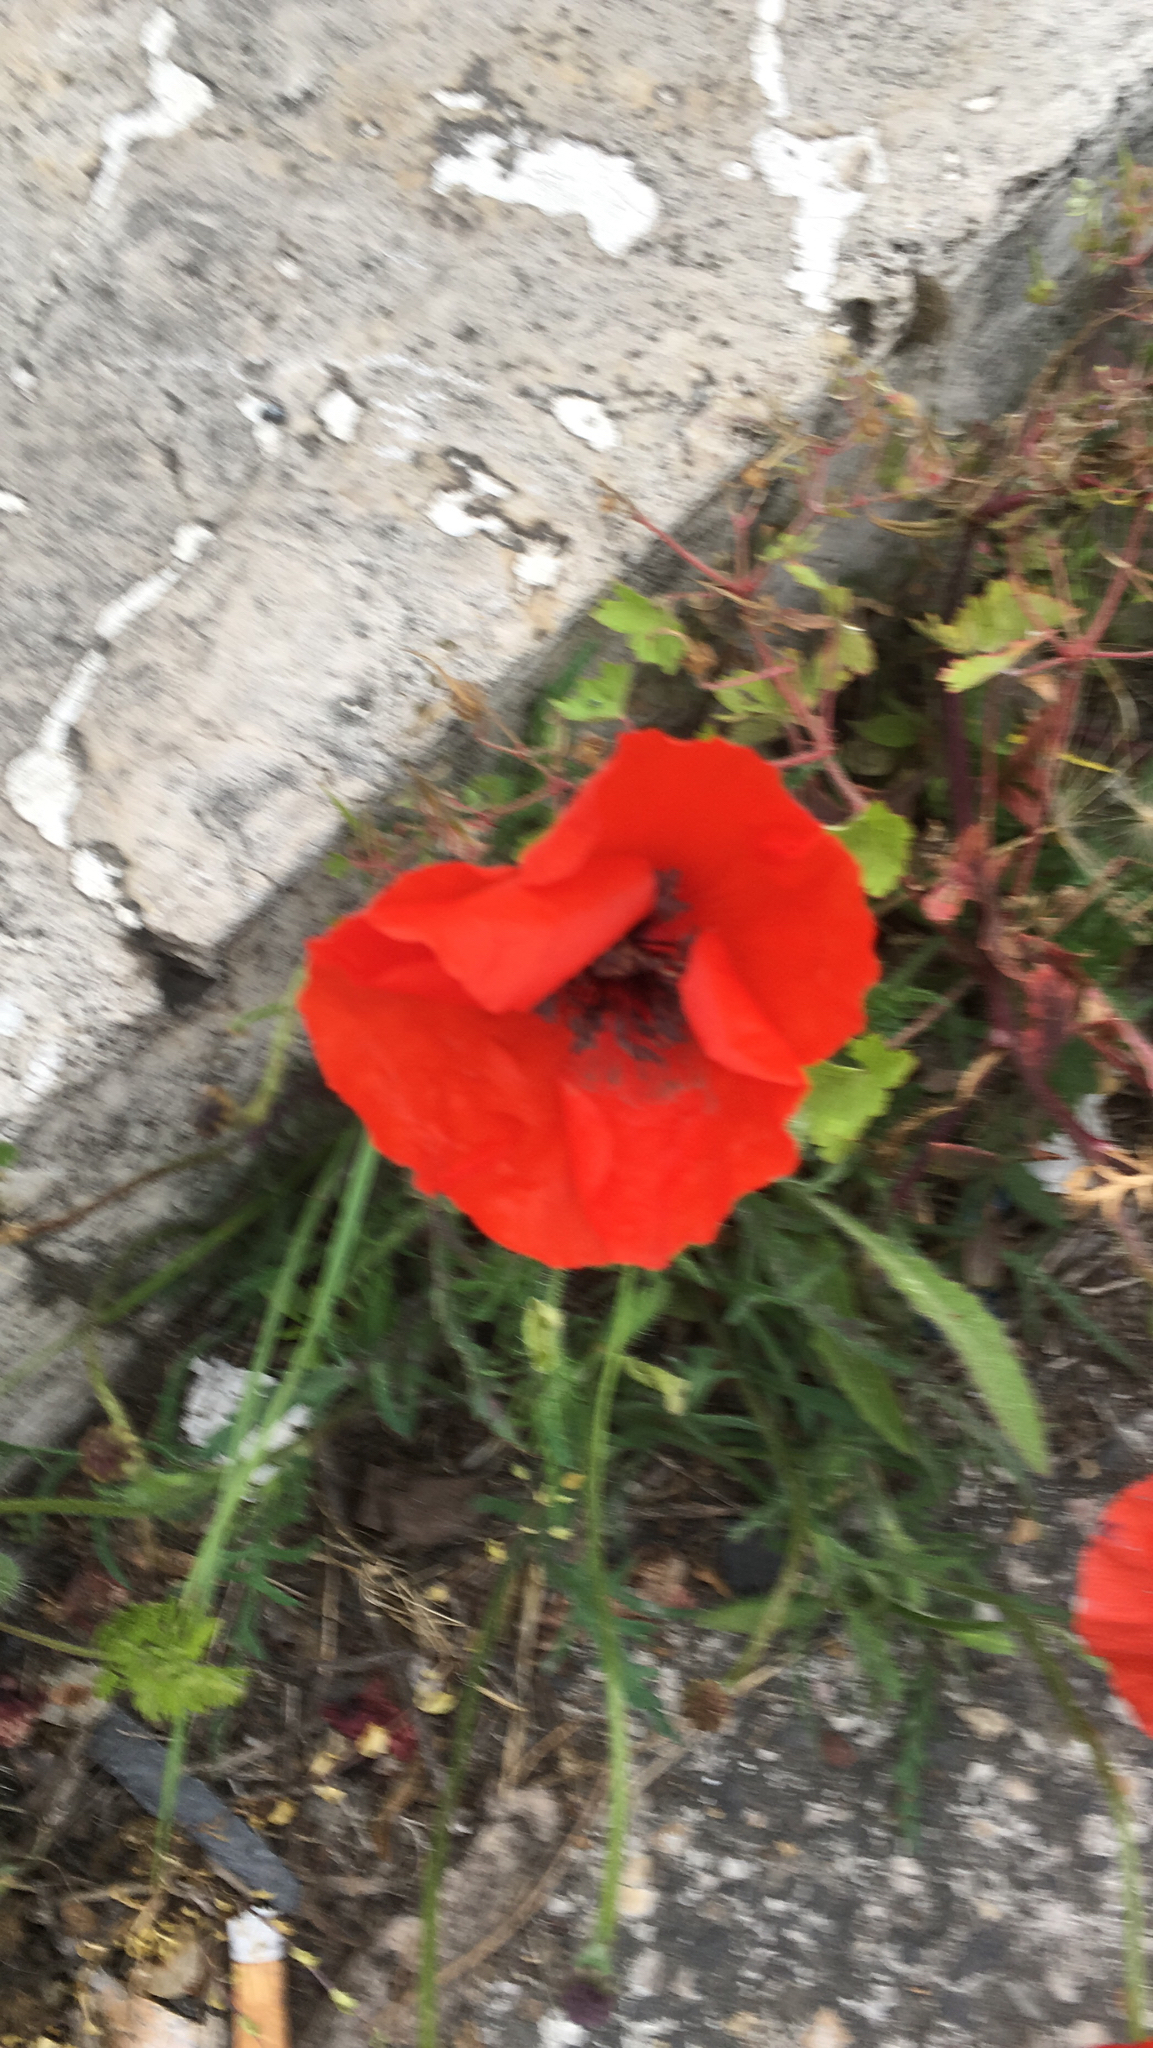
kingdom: Plantae
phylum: Tracheophyta
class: Magnoliopsida
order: Ranunculales
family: Papaveraceae
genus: Papaver
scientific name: Papaver rhoeas
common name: Corn poppy
